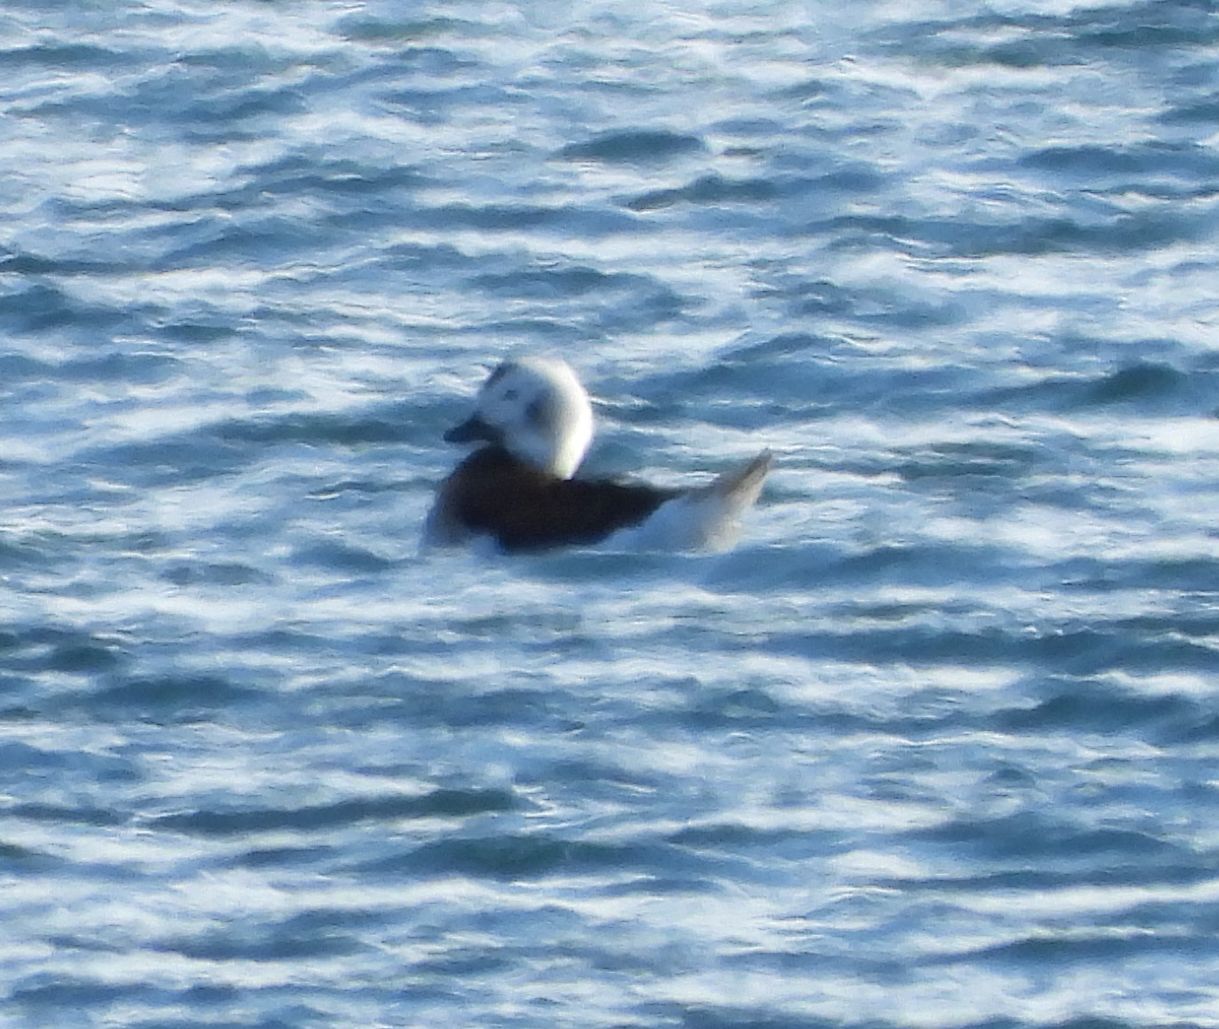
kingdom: Animalia
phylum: Chordata
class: Aves
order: Anseriformes
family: Anatidae
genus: Clangula
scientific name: Clangula hyemalis
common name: Long-tailed duck
